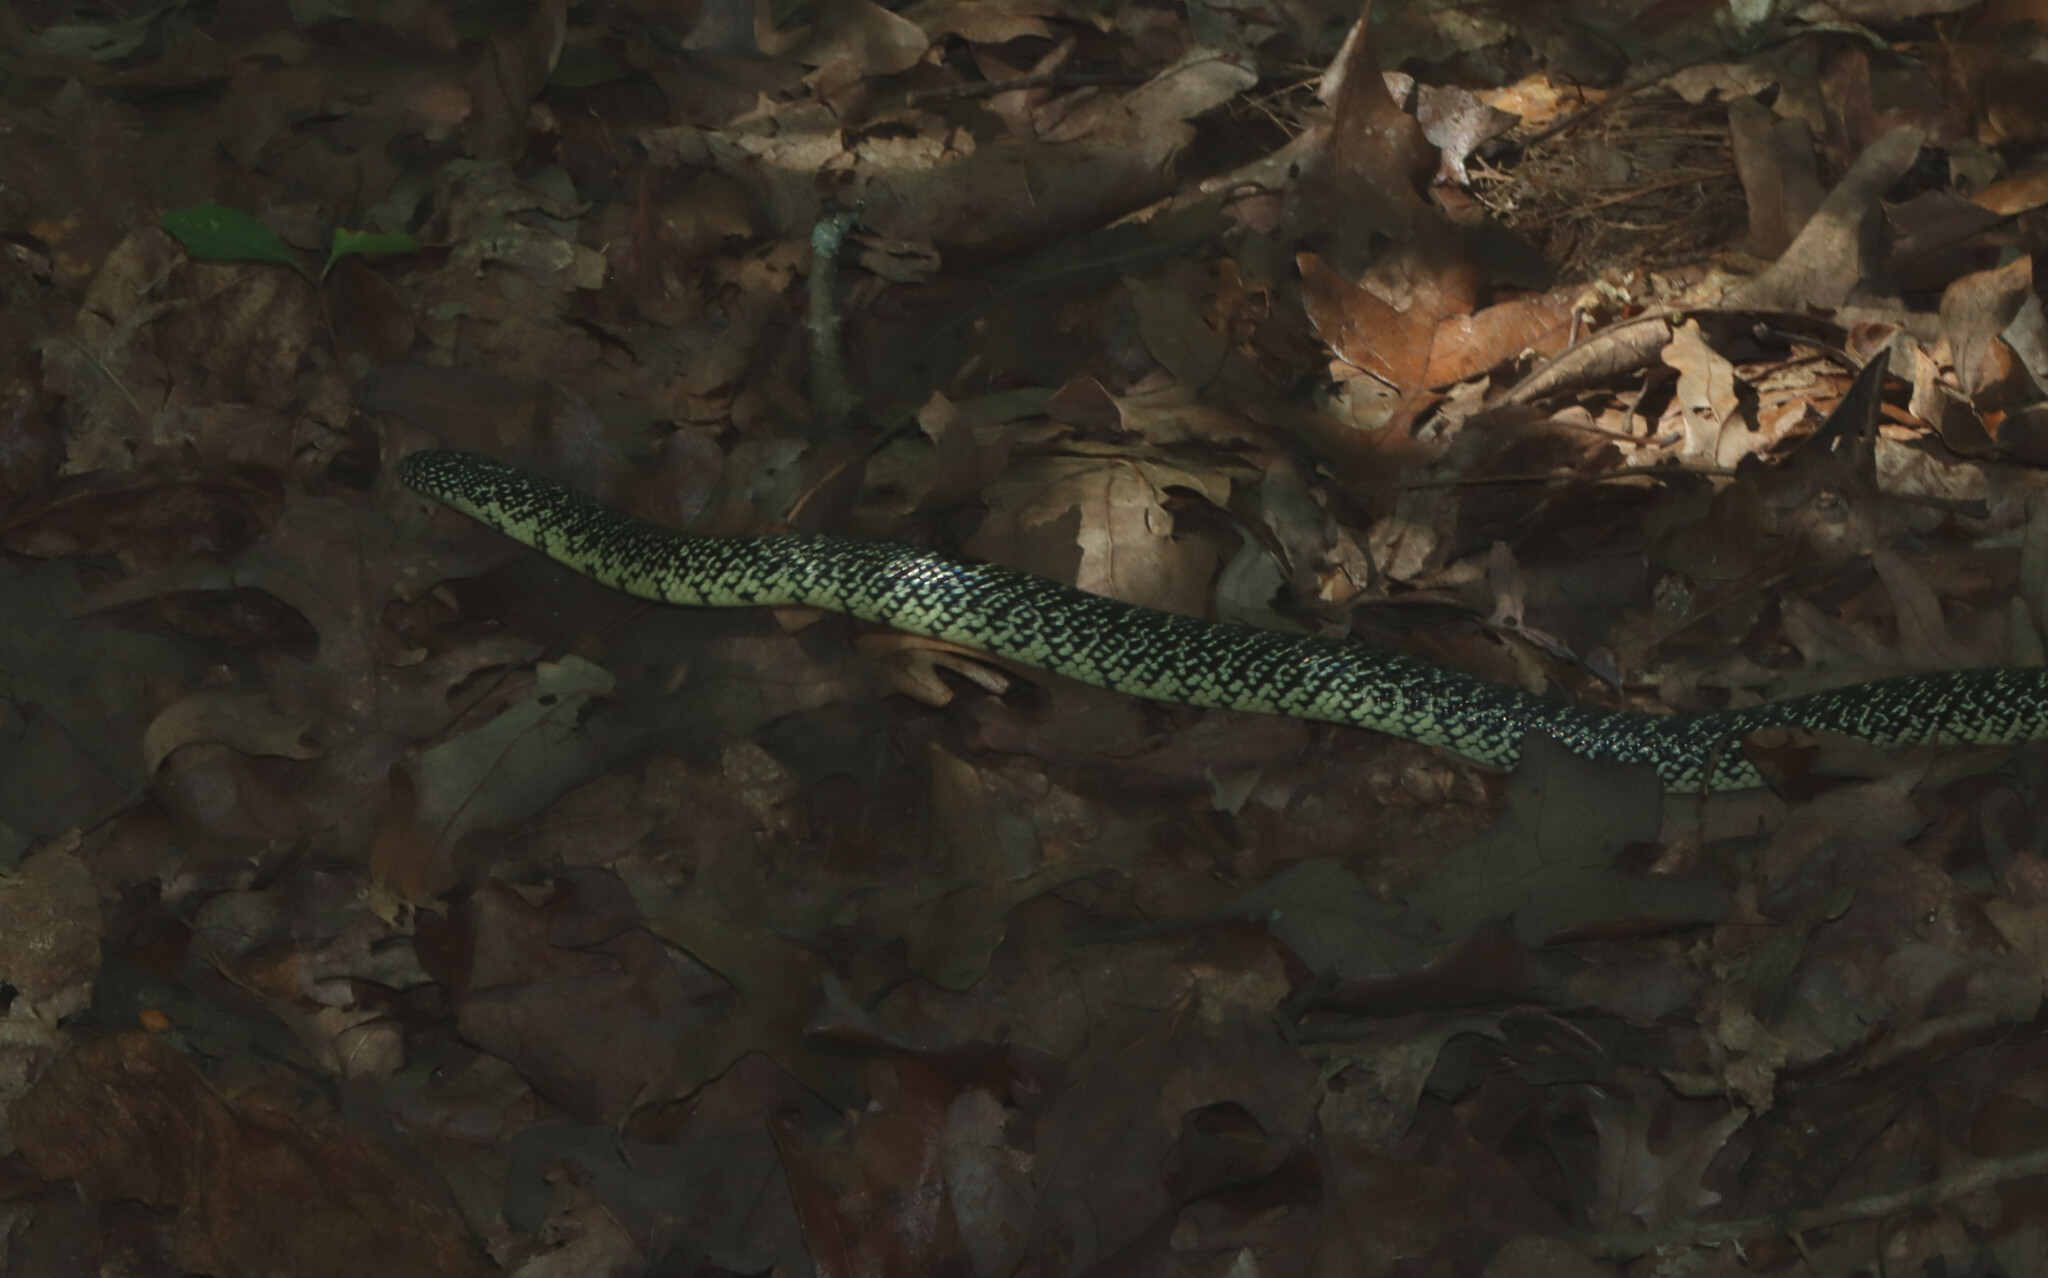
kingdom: Animalia
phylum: Chordata
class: Squamata
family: Colubridae
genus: Lampropeltis
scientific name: Lampropeltis holbrooki
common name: Speckled kingsnake
